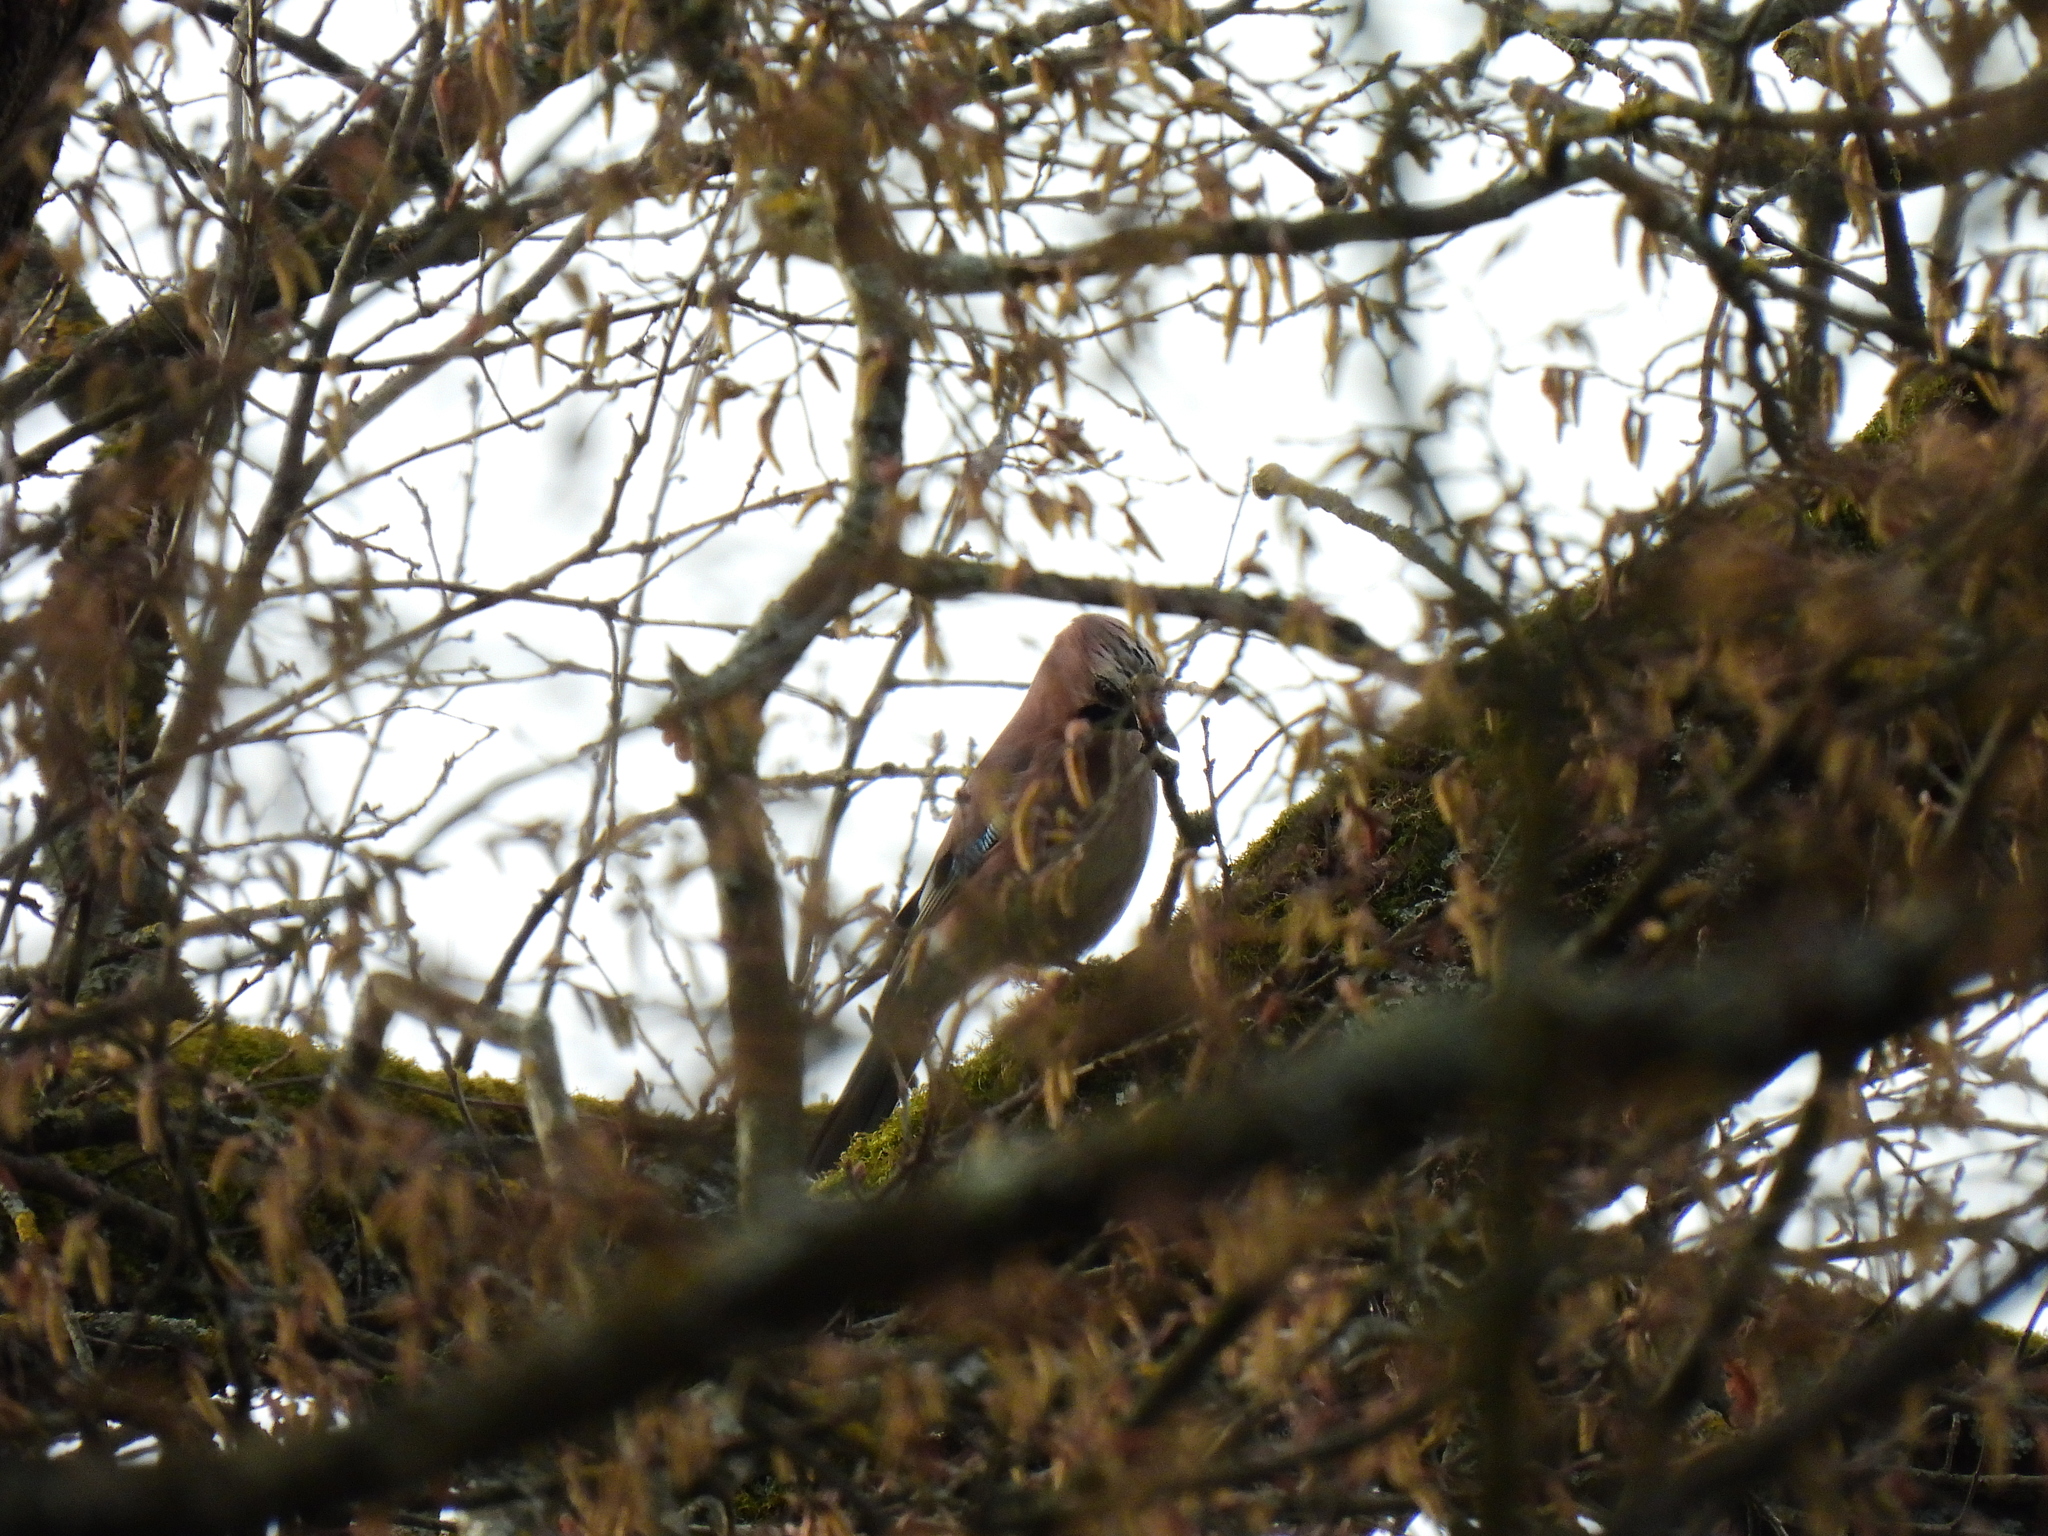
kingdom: Animalia
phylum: Chordata
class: Aves
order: Passeriformes
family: Corvidae
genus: Garrulus
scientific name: Garrulus glandarius
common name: Eurasian jay
